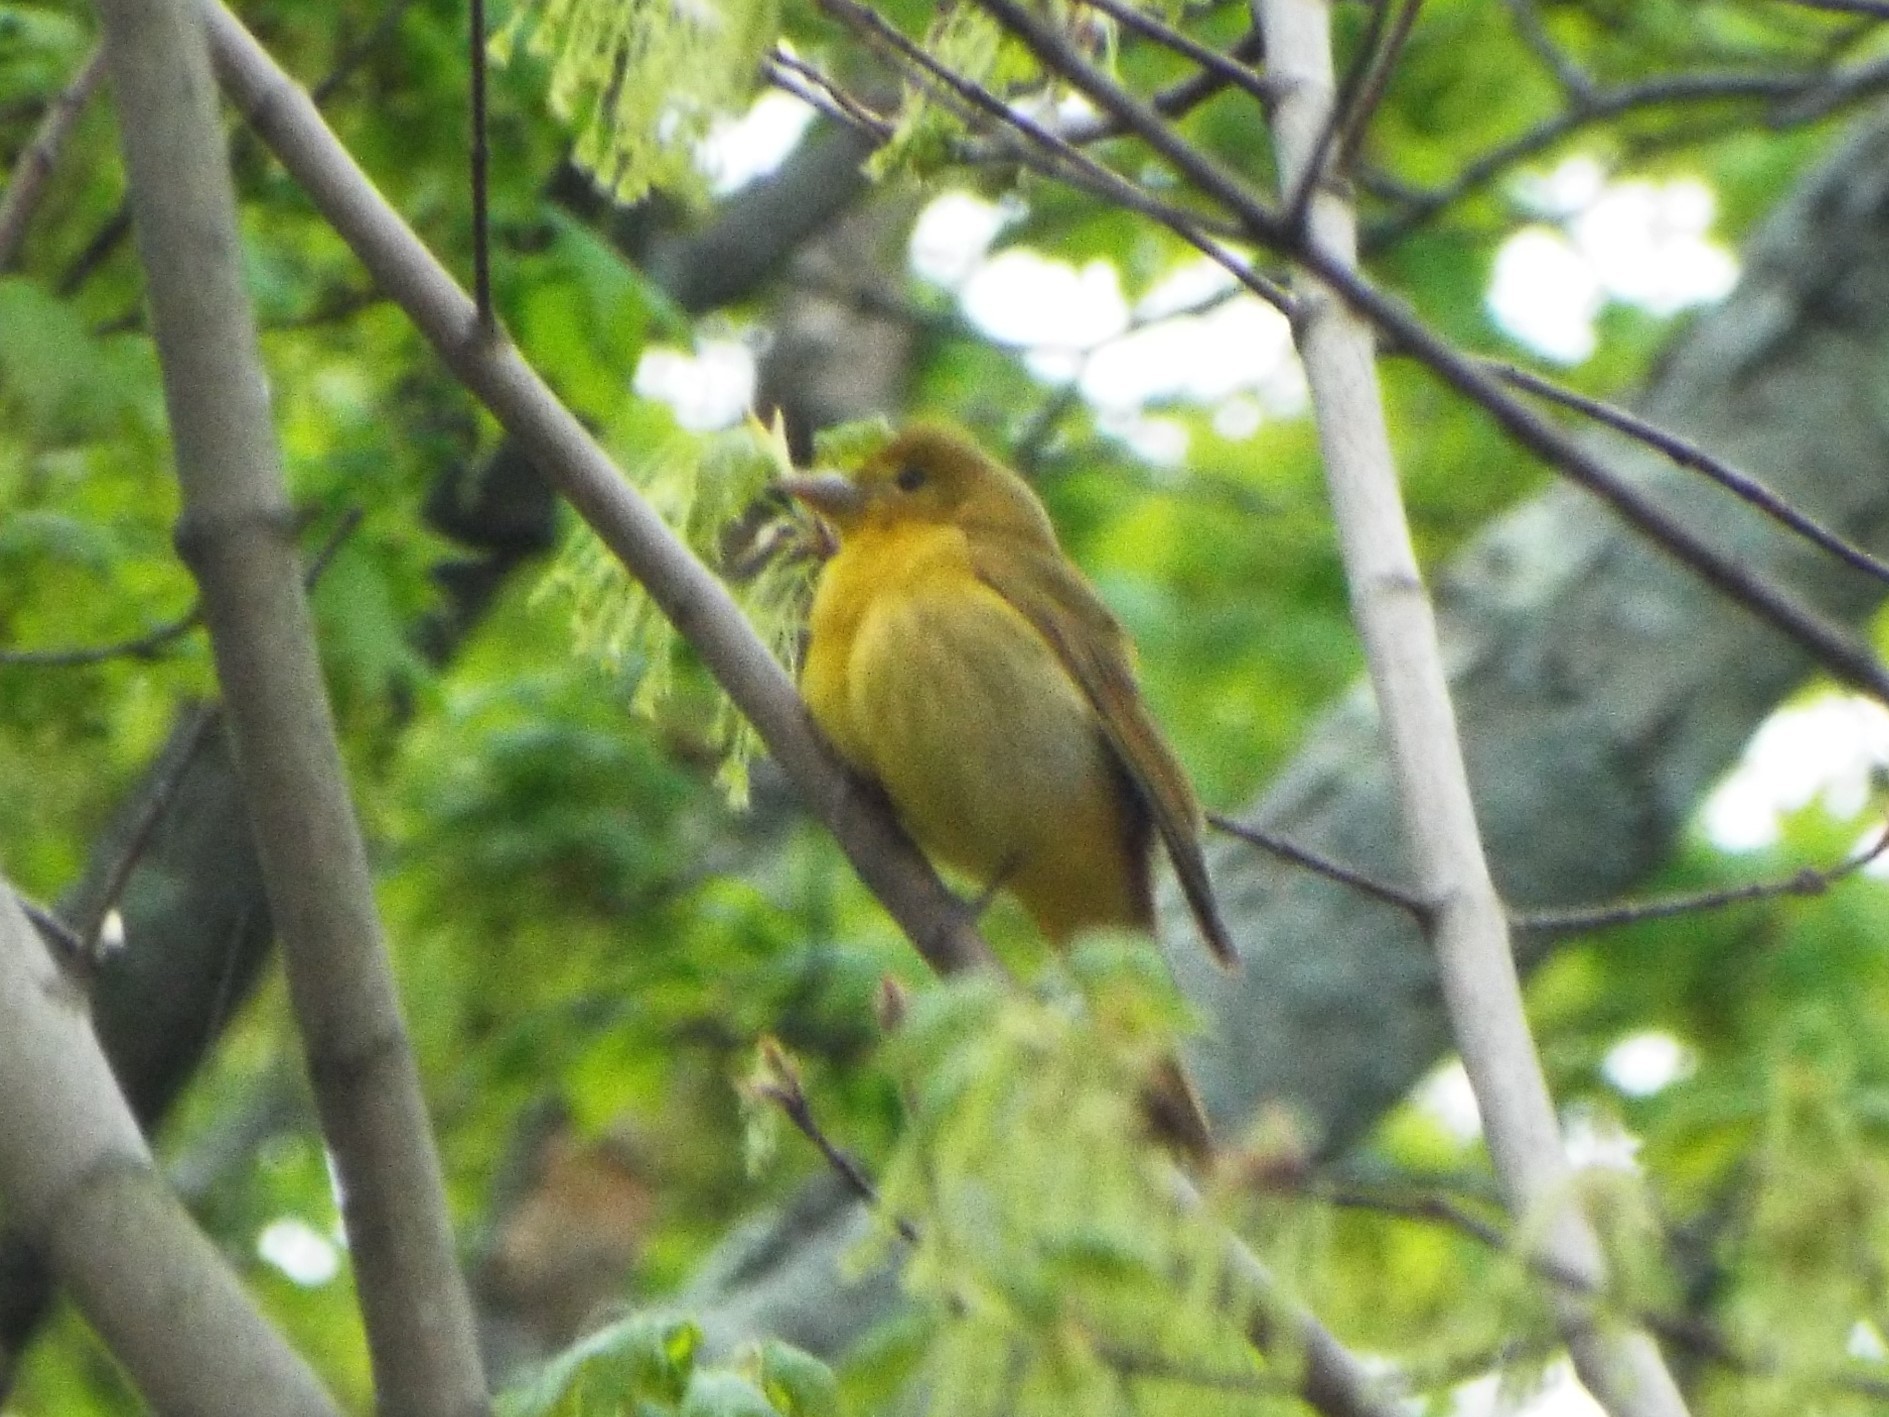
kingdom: Animalia
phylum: Chordata
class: Aves
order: Passeriformes
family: Cardinalidae
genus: Piranga
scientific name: Piranga rubra
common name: Summer tanager
